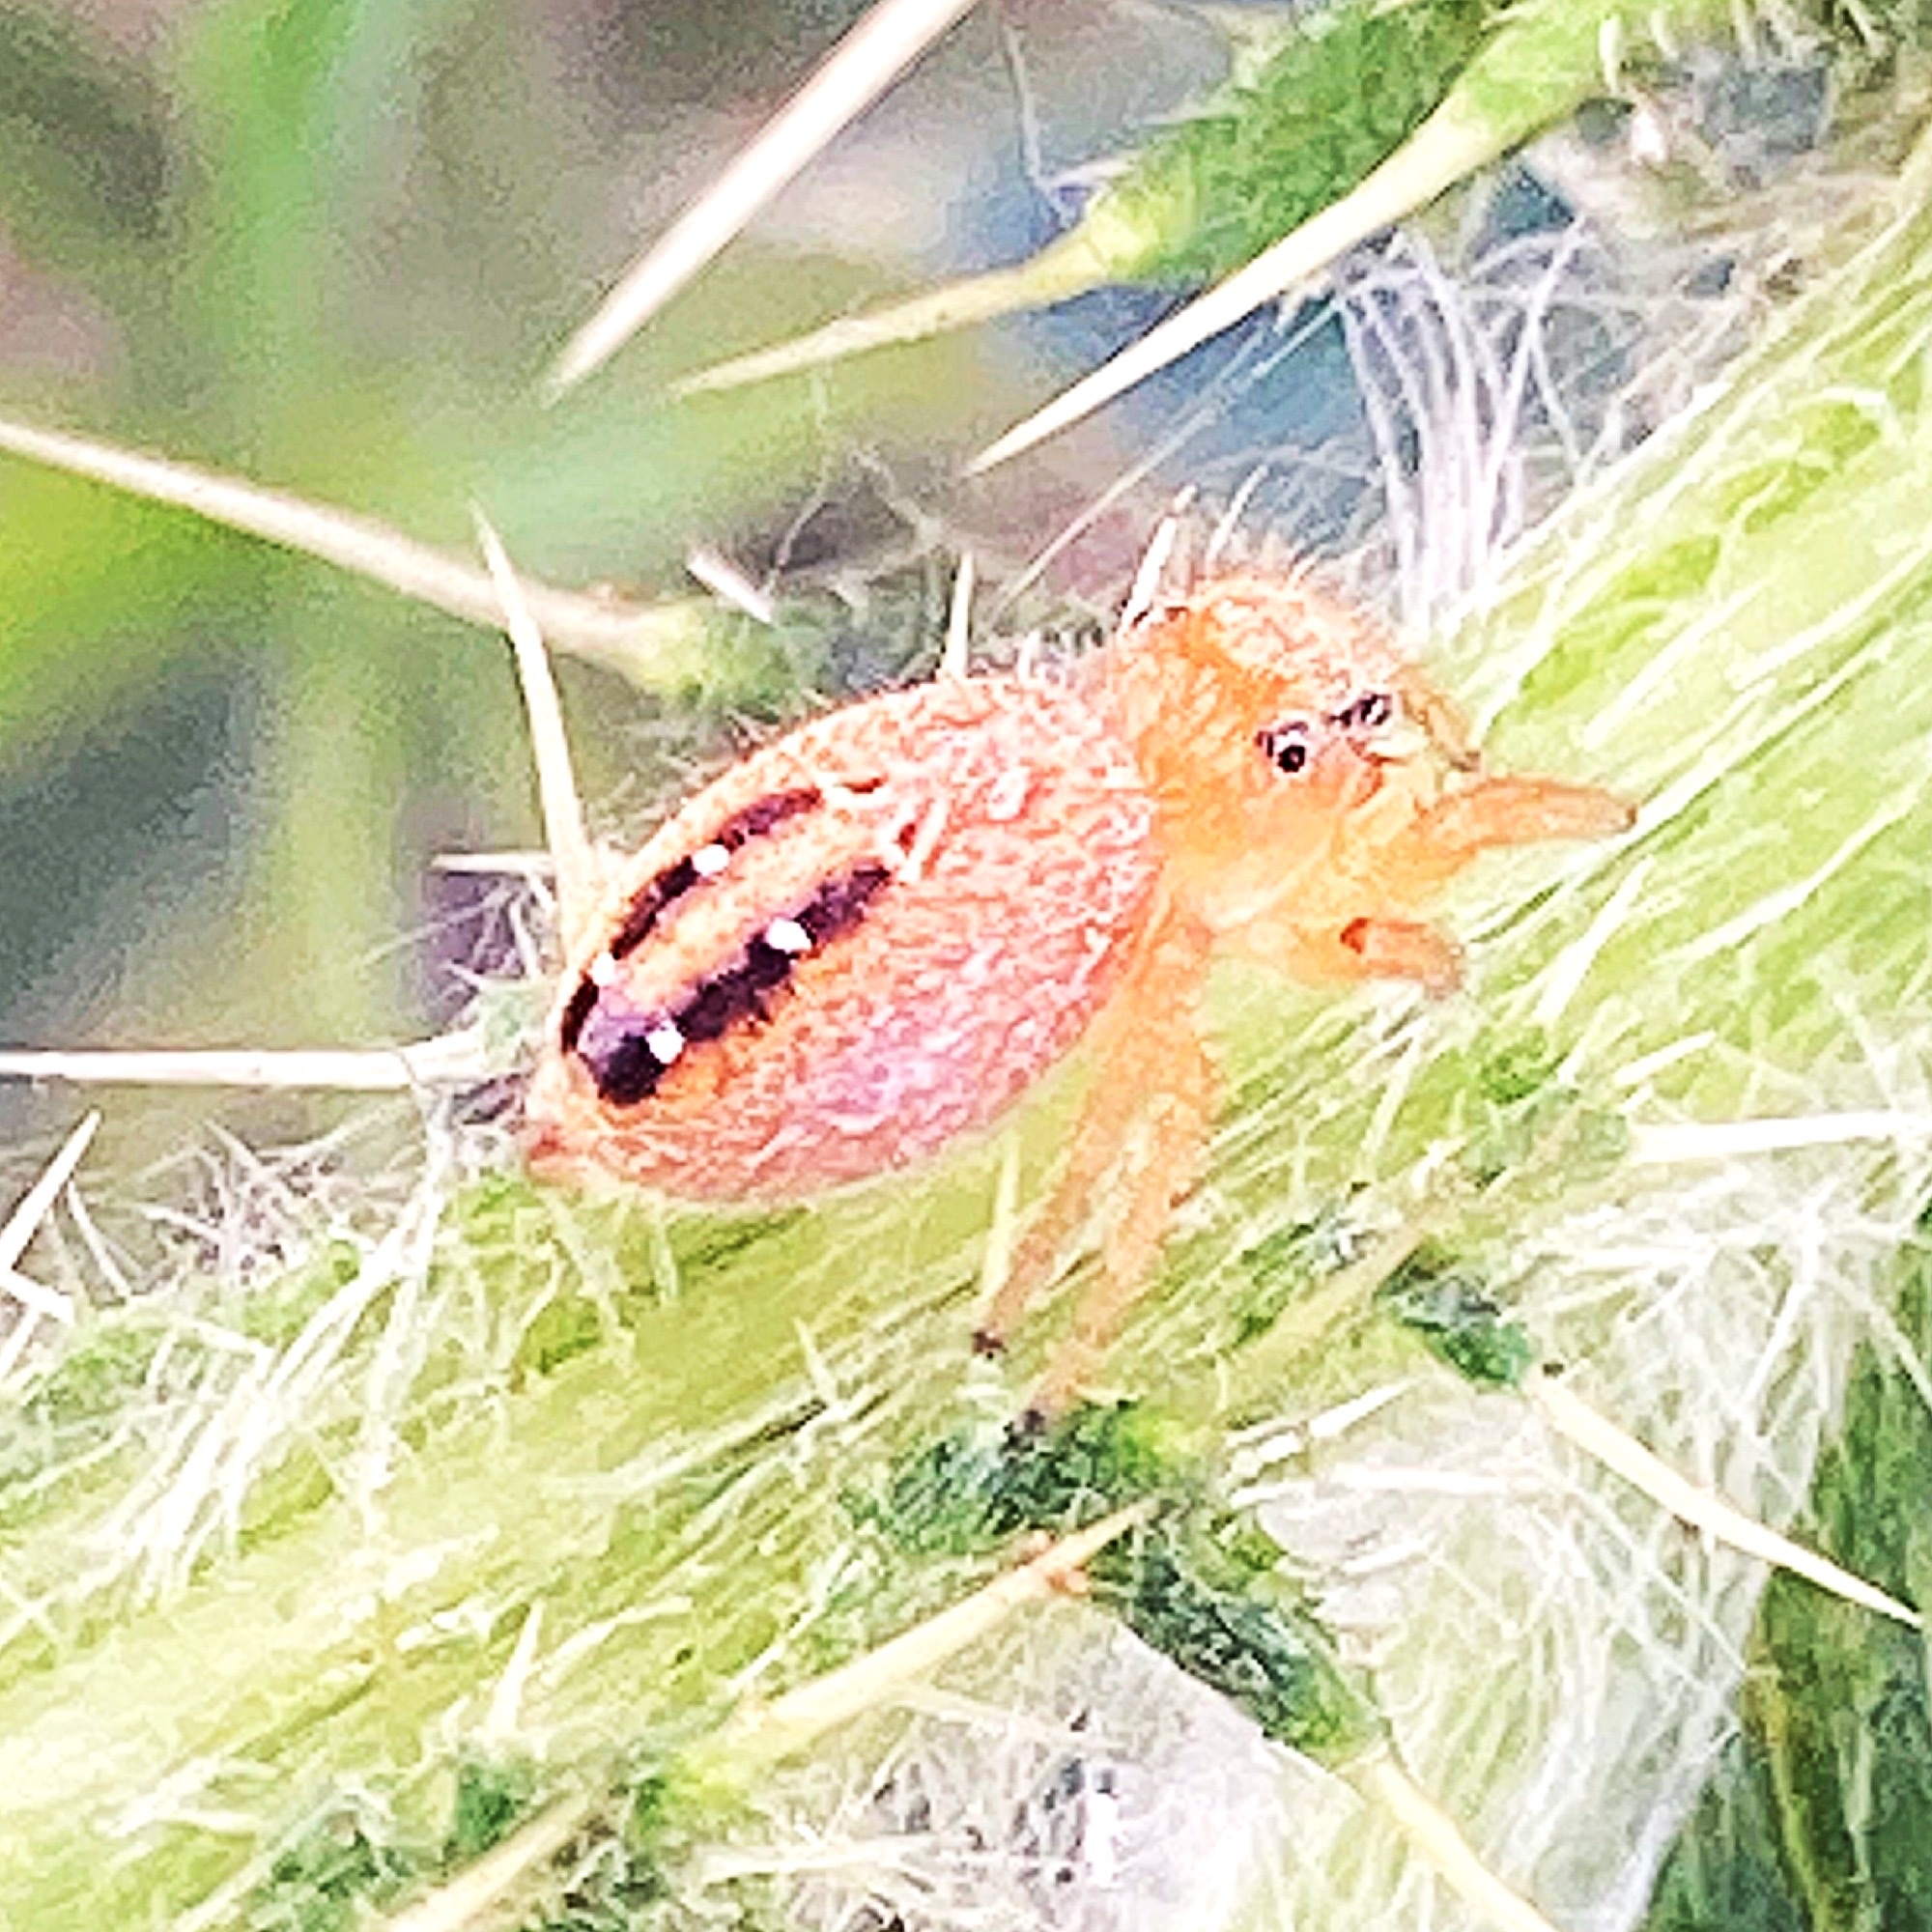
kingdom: Animalia
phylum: Arthropoda
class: Arachnida
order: Araneae
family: Salticidae
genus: Phidippus
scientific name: Phidippus cardinalis
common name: Cardinal jumper
